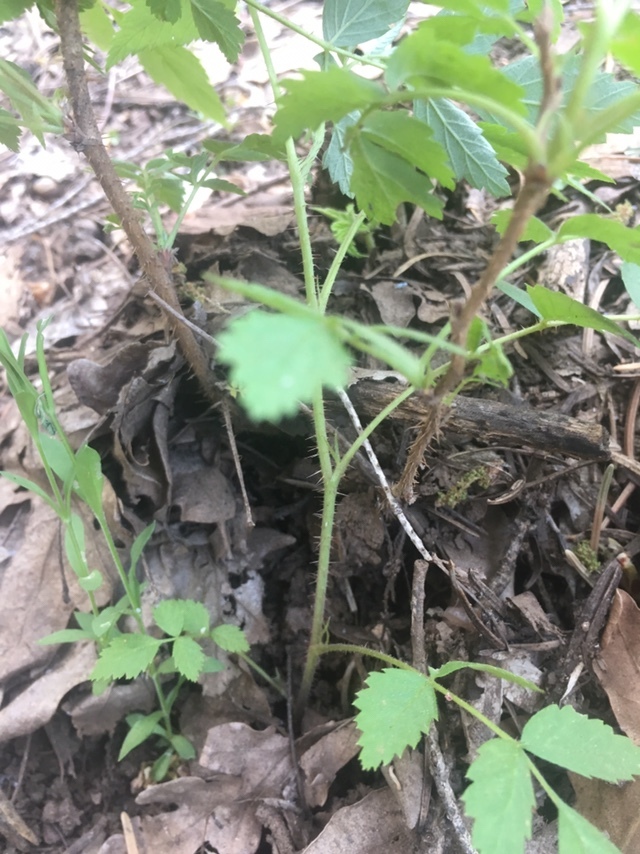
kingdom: Plantae
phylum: Tracheophyta
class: Magnoliopsida
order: Rosales
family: Rosaceae
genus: Rubus
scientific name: Rubus idaeus
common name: Raspberry
